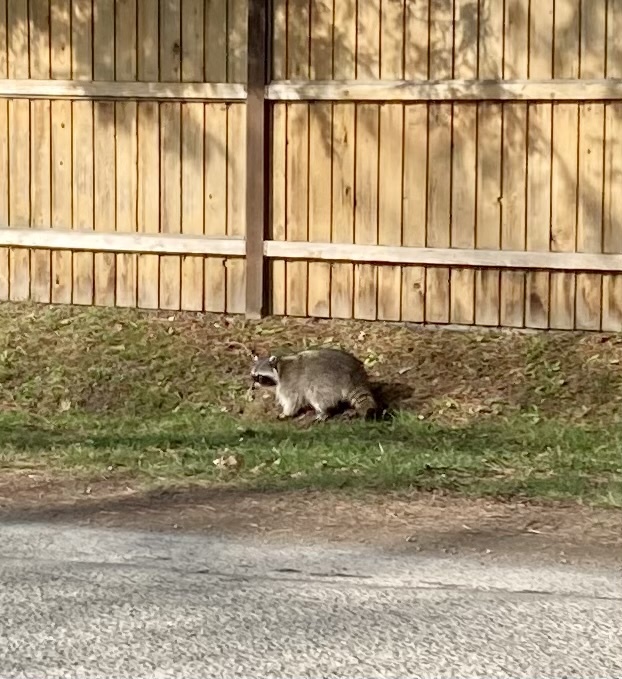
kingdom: Animalia
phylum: Chordata
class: Mammalia
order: Carnivora
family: Procyonidae
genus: Procyon
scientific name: Procyon lotor
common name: Raccoon
